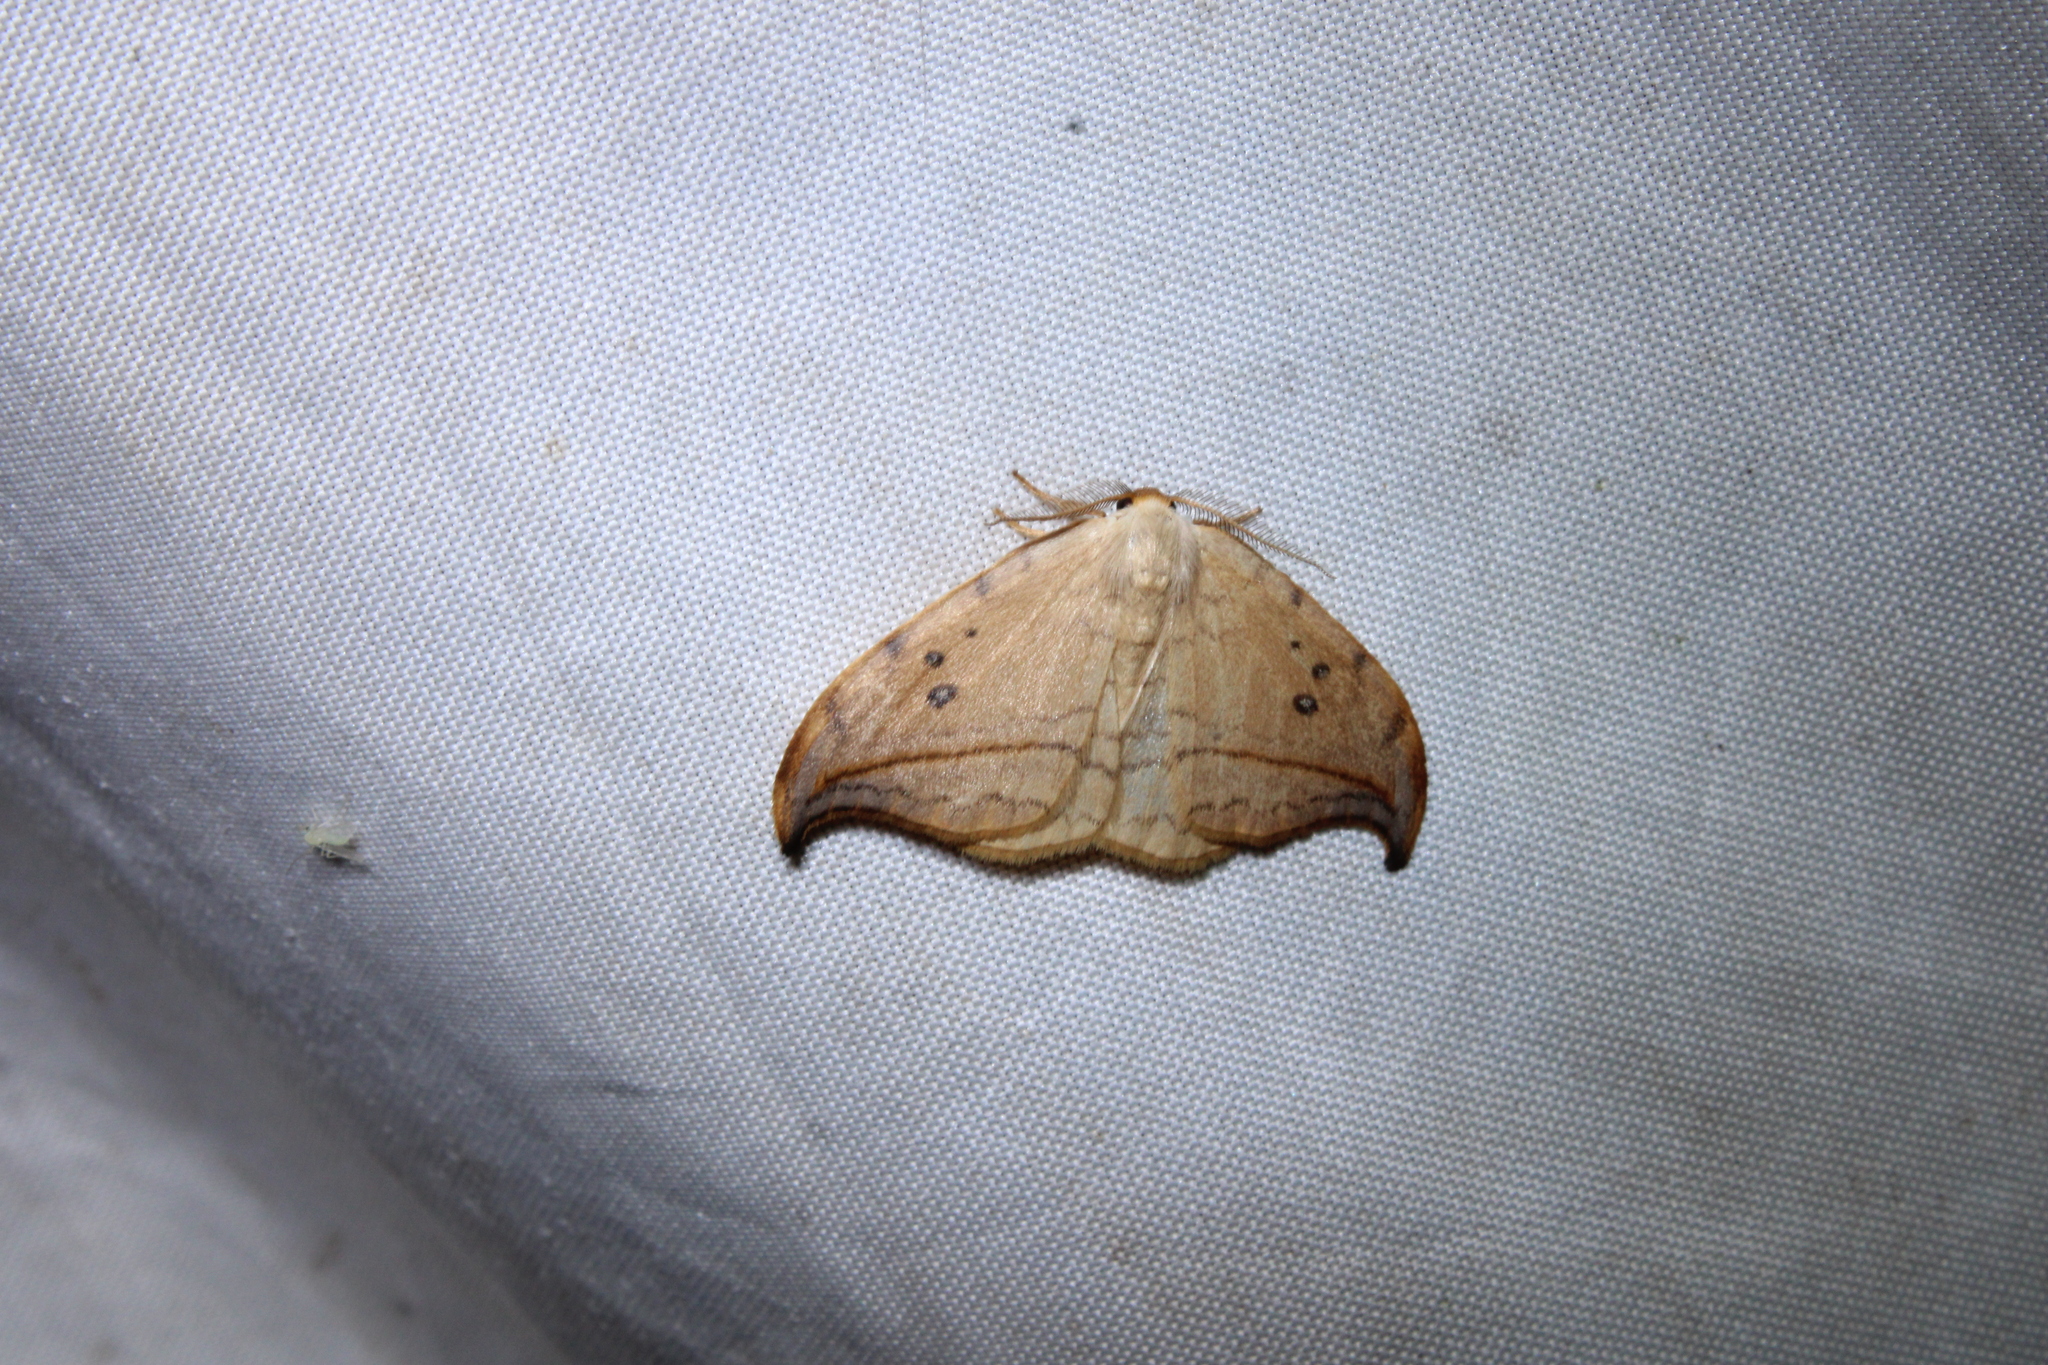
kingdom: Animalia
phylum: Arthropoda
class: Insecta
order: Lepidoptera
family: Drepanidae
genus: Drepana
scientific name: Drepana arcuata
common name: Arched hooktip moth
